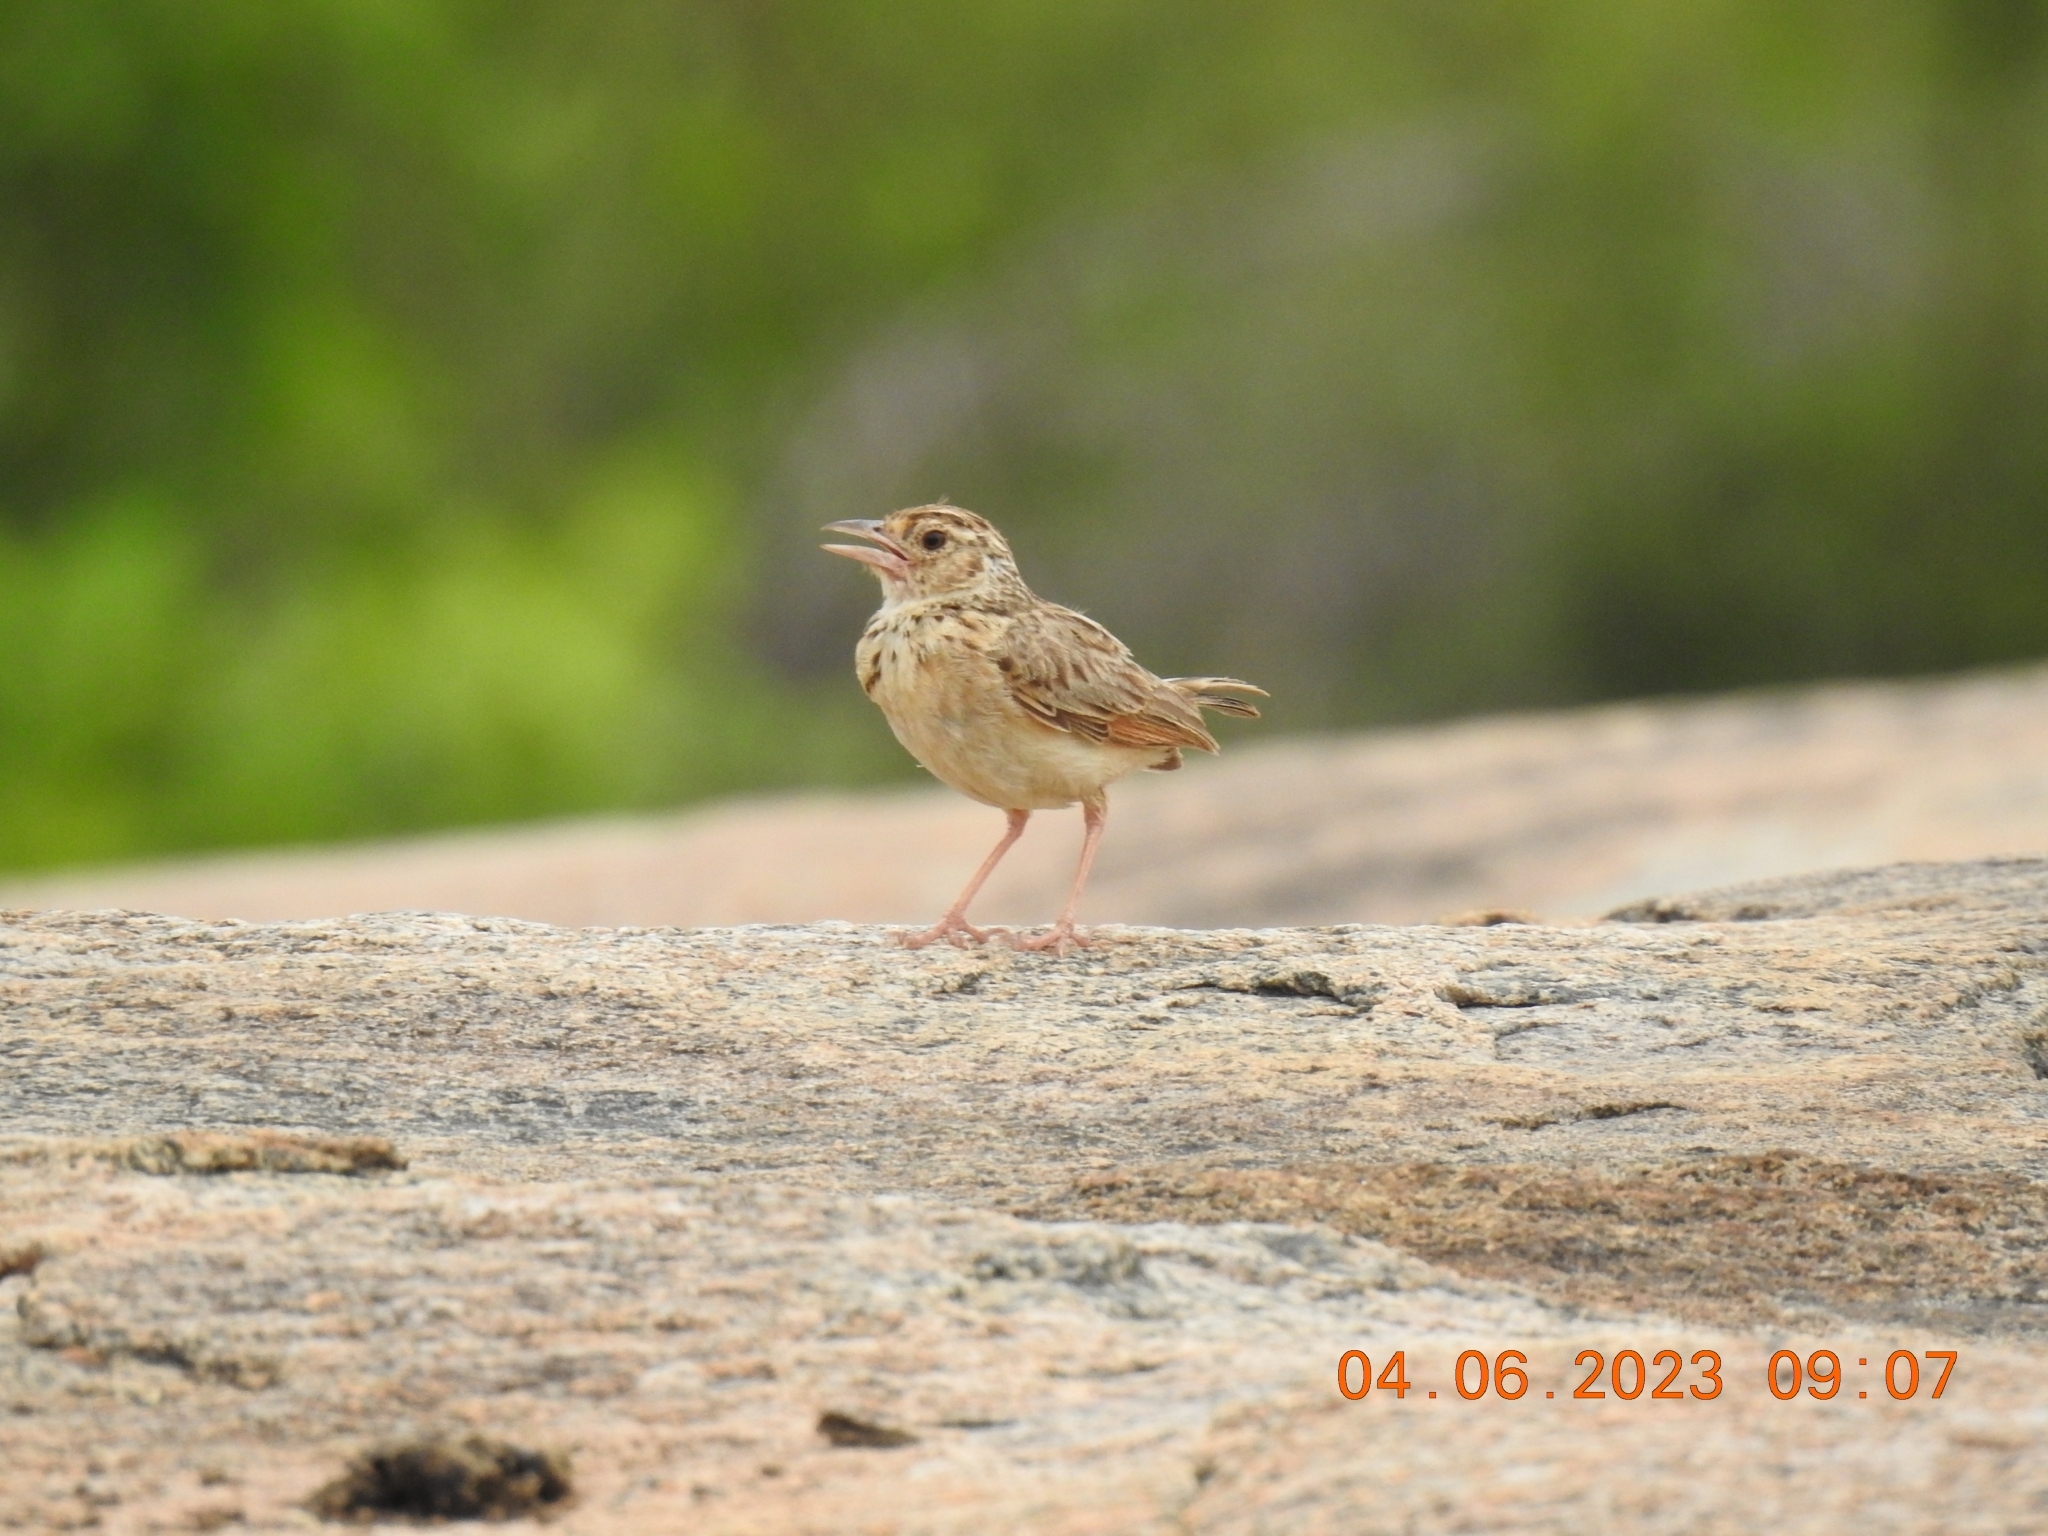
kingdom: Animalia
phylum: Chordata
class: Aves
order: Passeriformes
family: Alaudidae
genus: Mirafra
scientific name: Mirafra affinis
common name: Jerdon's bushlark
